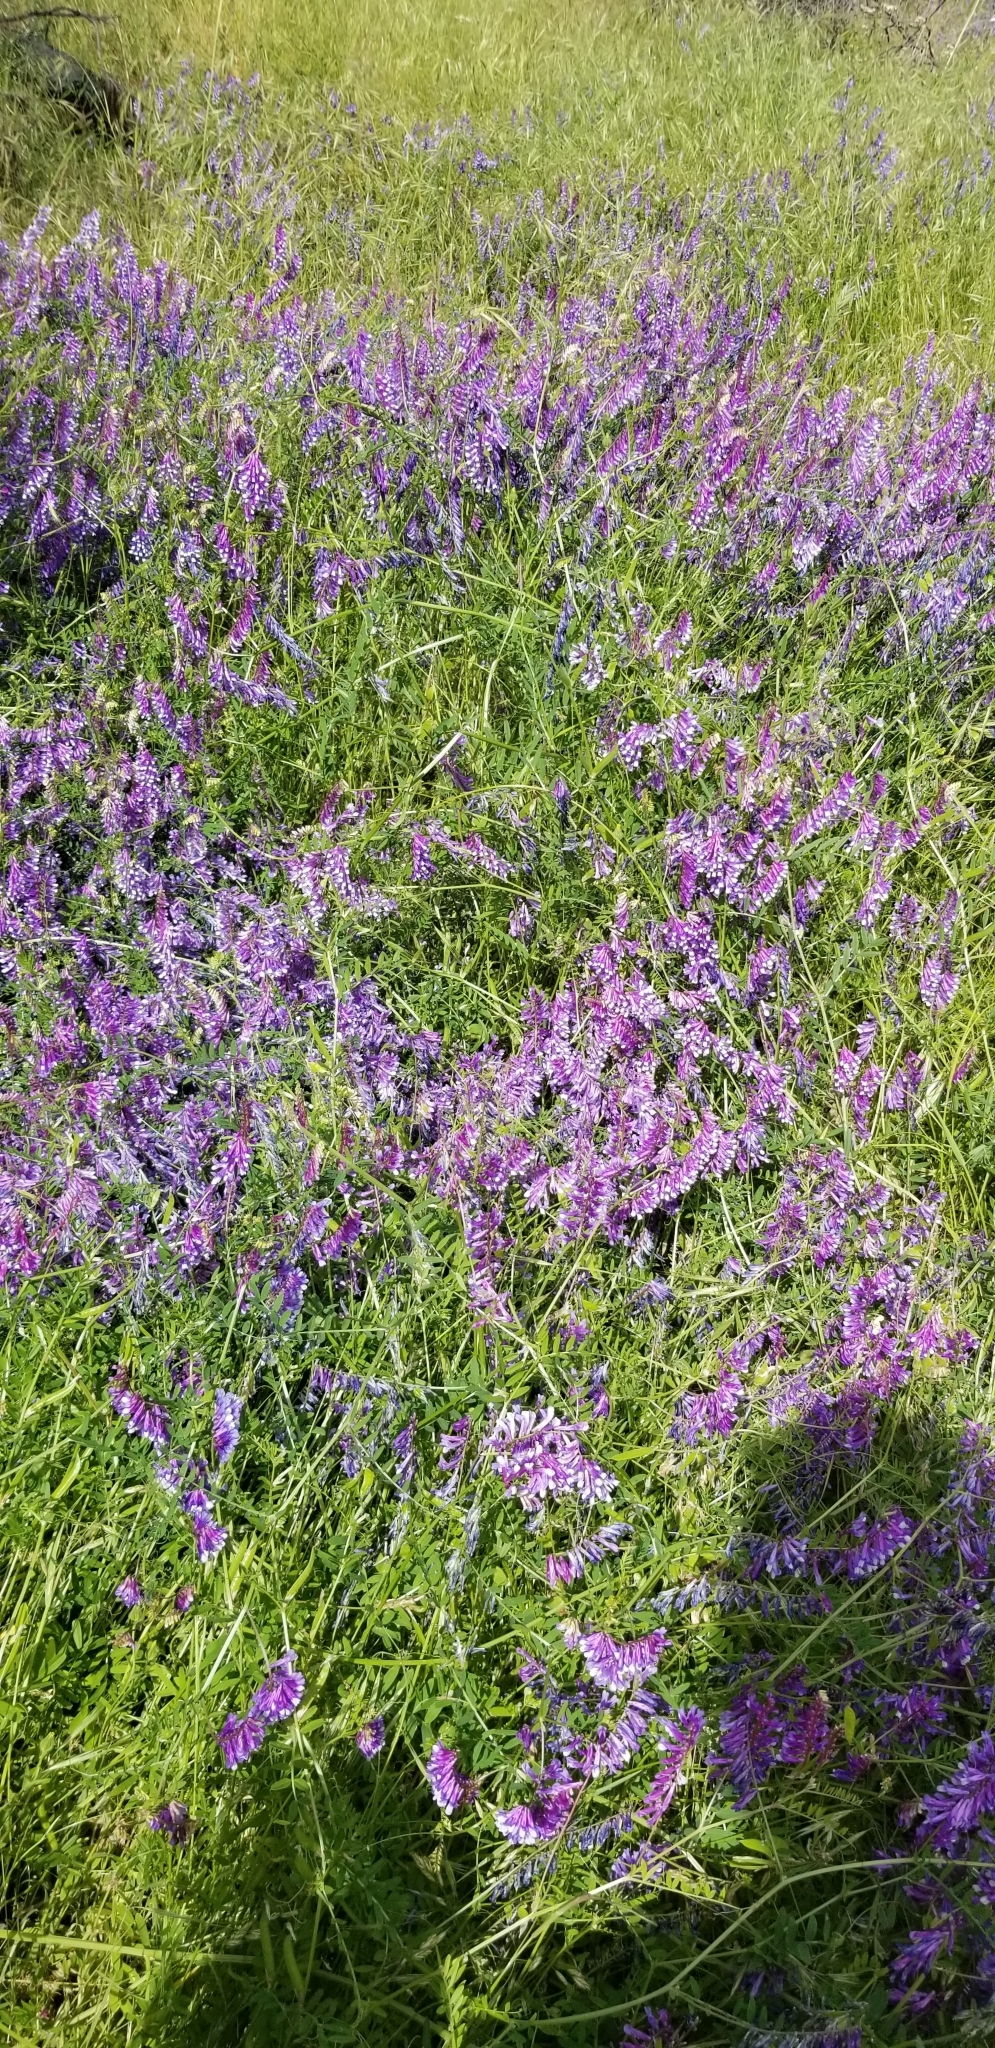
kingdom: Plantae
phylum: Tracheophyta
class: Magnoliopsida
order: Fabales
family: Fabaceae
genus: Vicia
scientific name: Vicia villosa
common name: Fodder vetch
